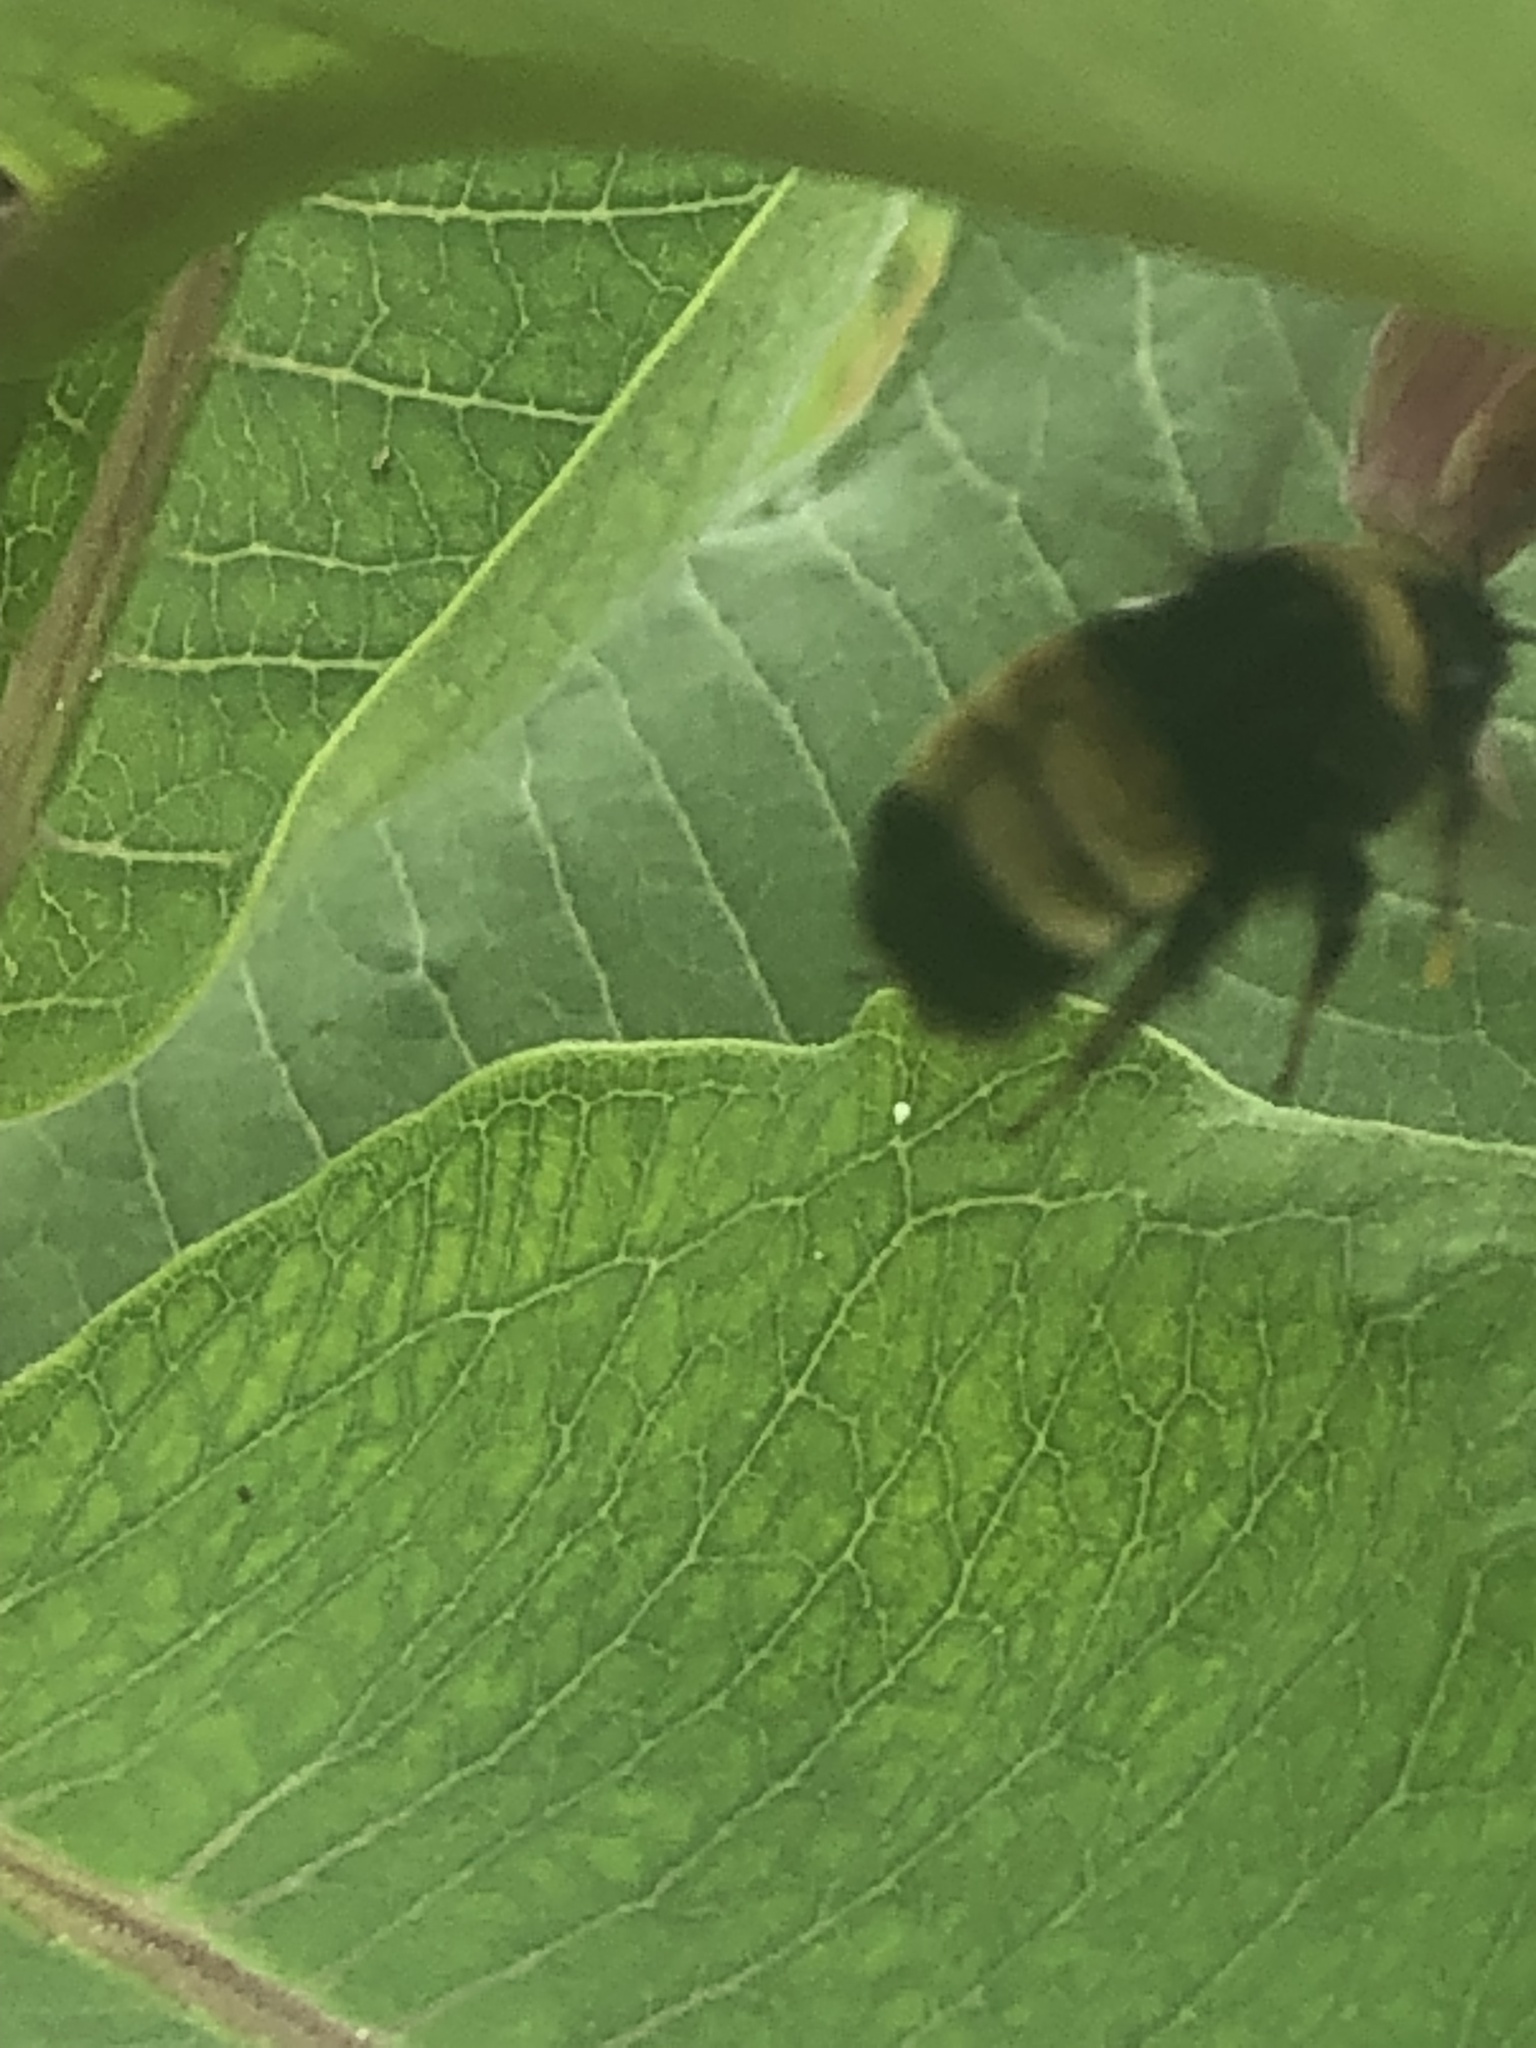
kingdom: Animalia
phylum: Arthropoda
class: Insecta
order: Hymenoptera
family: Apidae
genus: Bombus
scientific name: Bombus terricola
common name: Yellow-banded bumble bee
